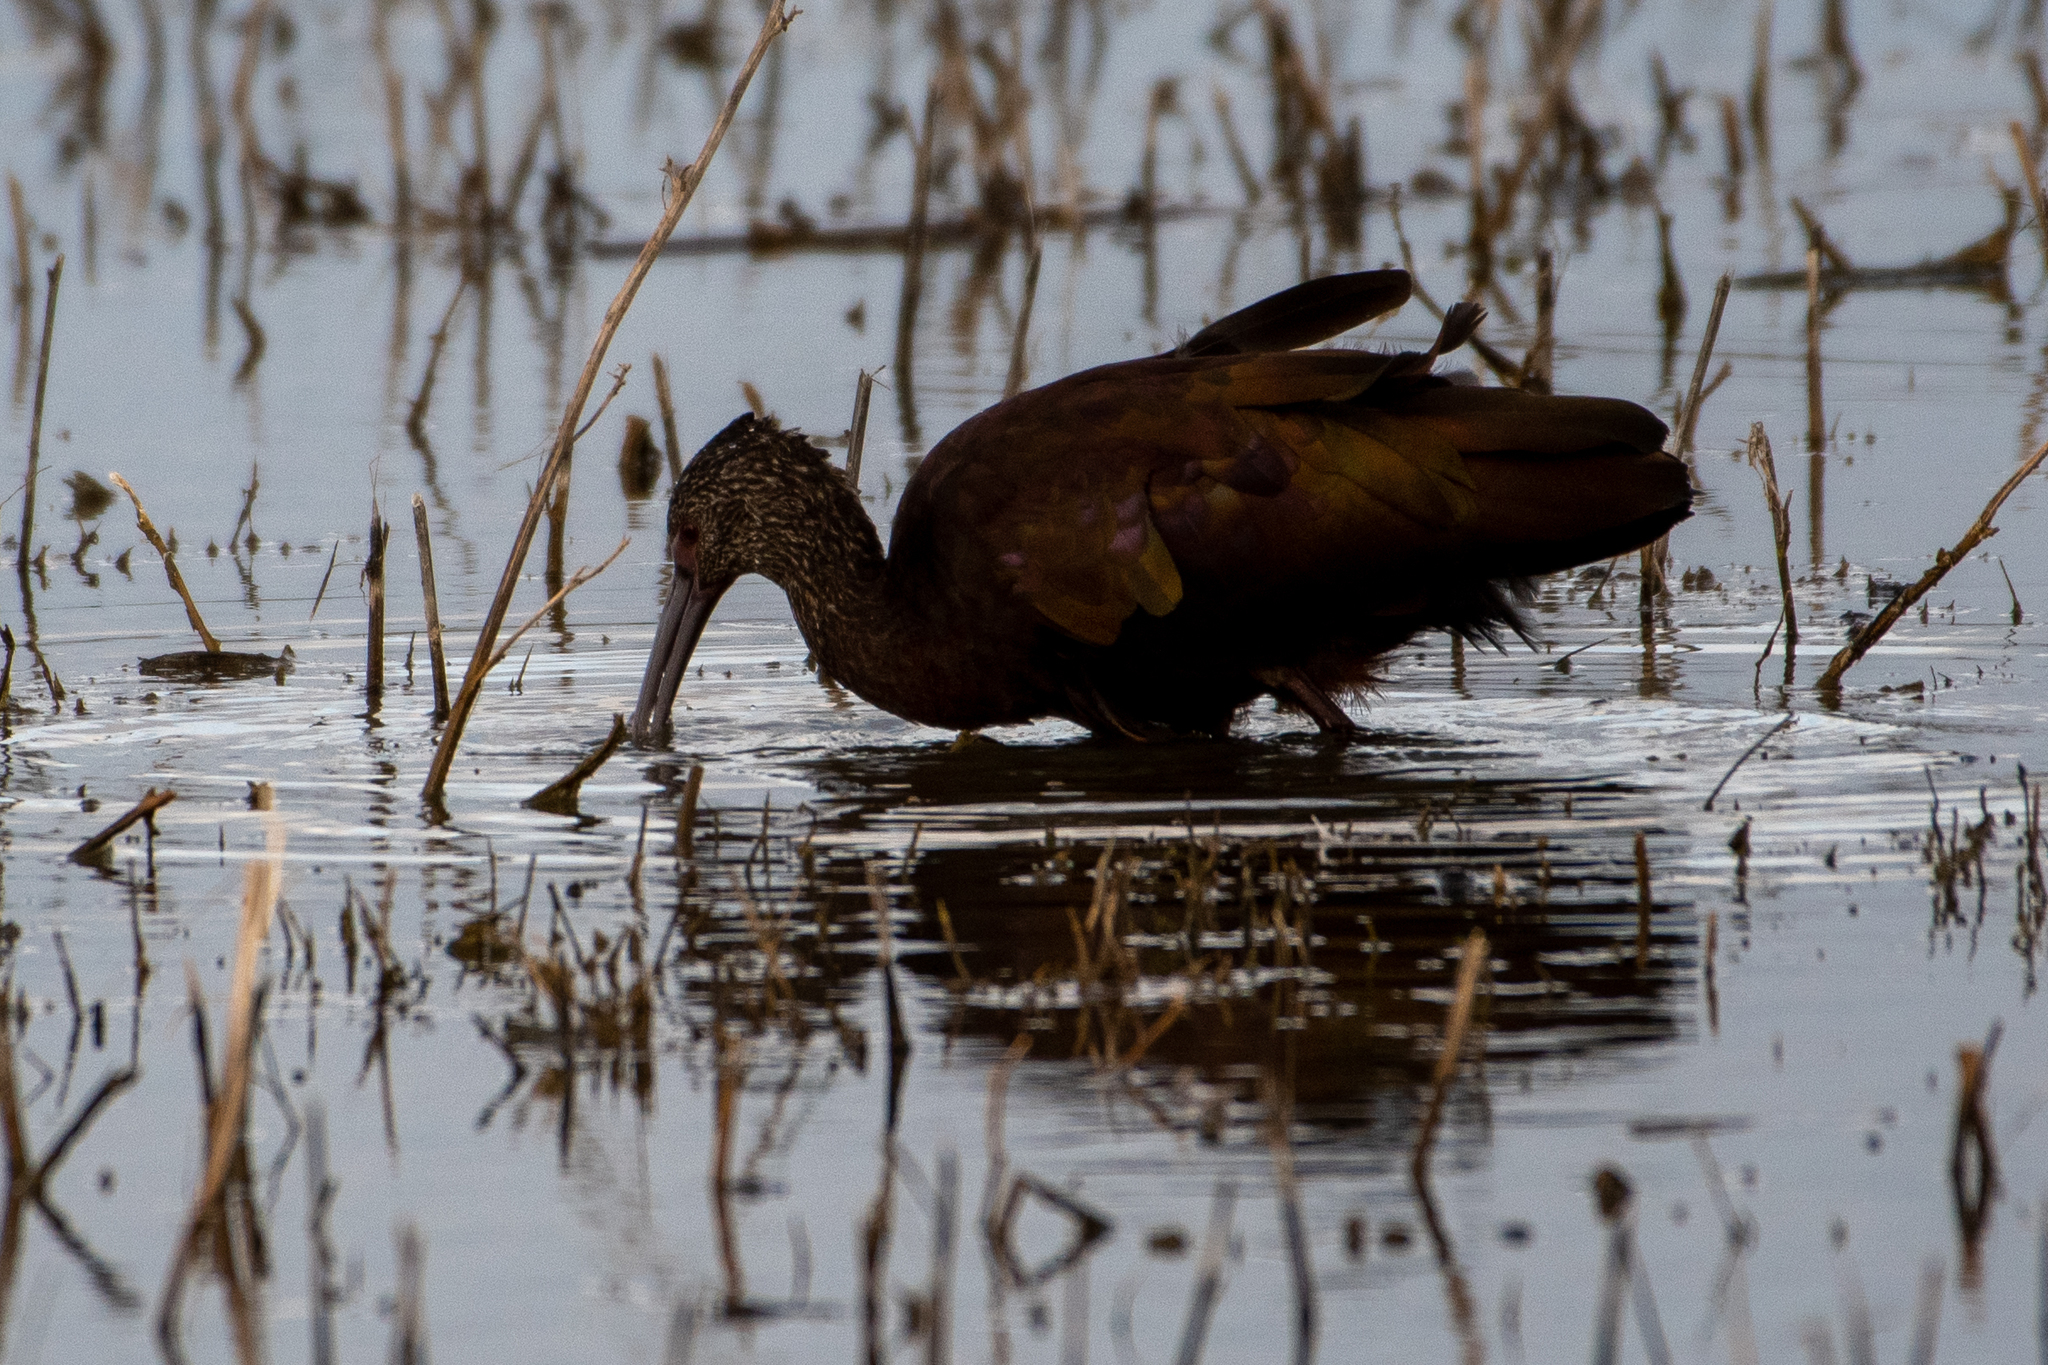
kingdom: Animalia
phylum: Chordata
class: Aves
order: Pelecaniformes
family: Threskiornithidae
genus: Plegadis
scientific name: Plegadis chihi
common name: White-faced ibis
